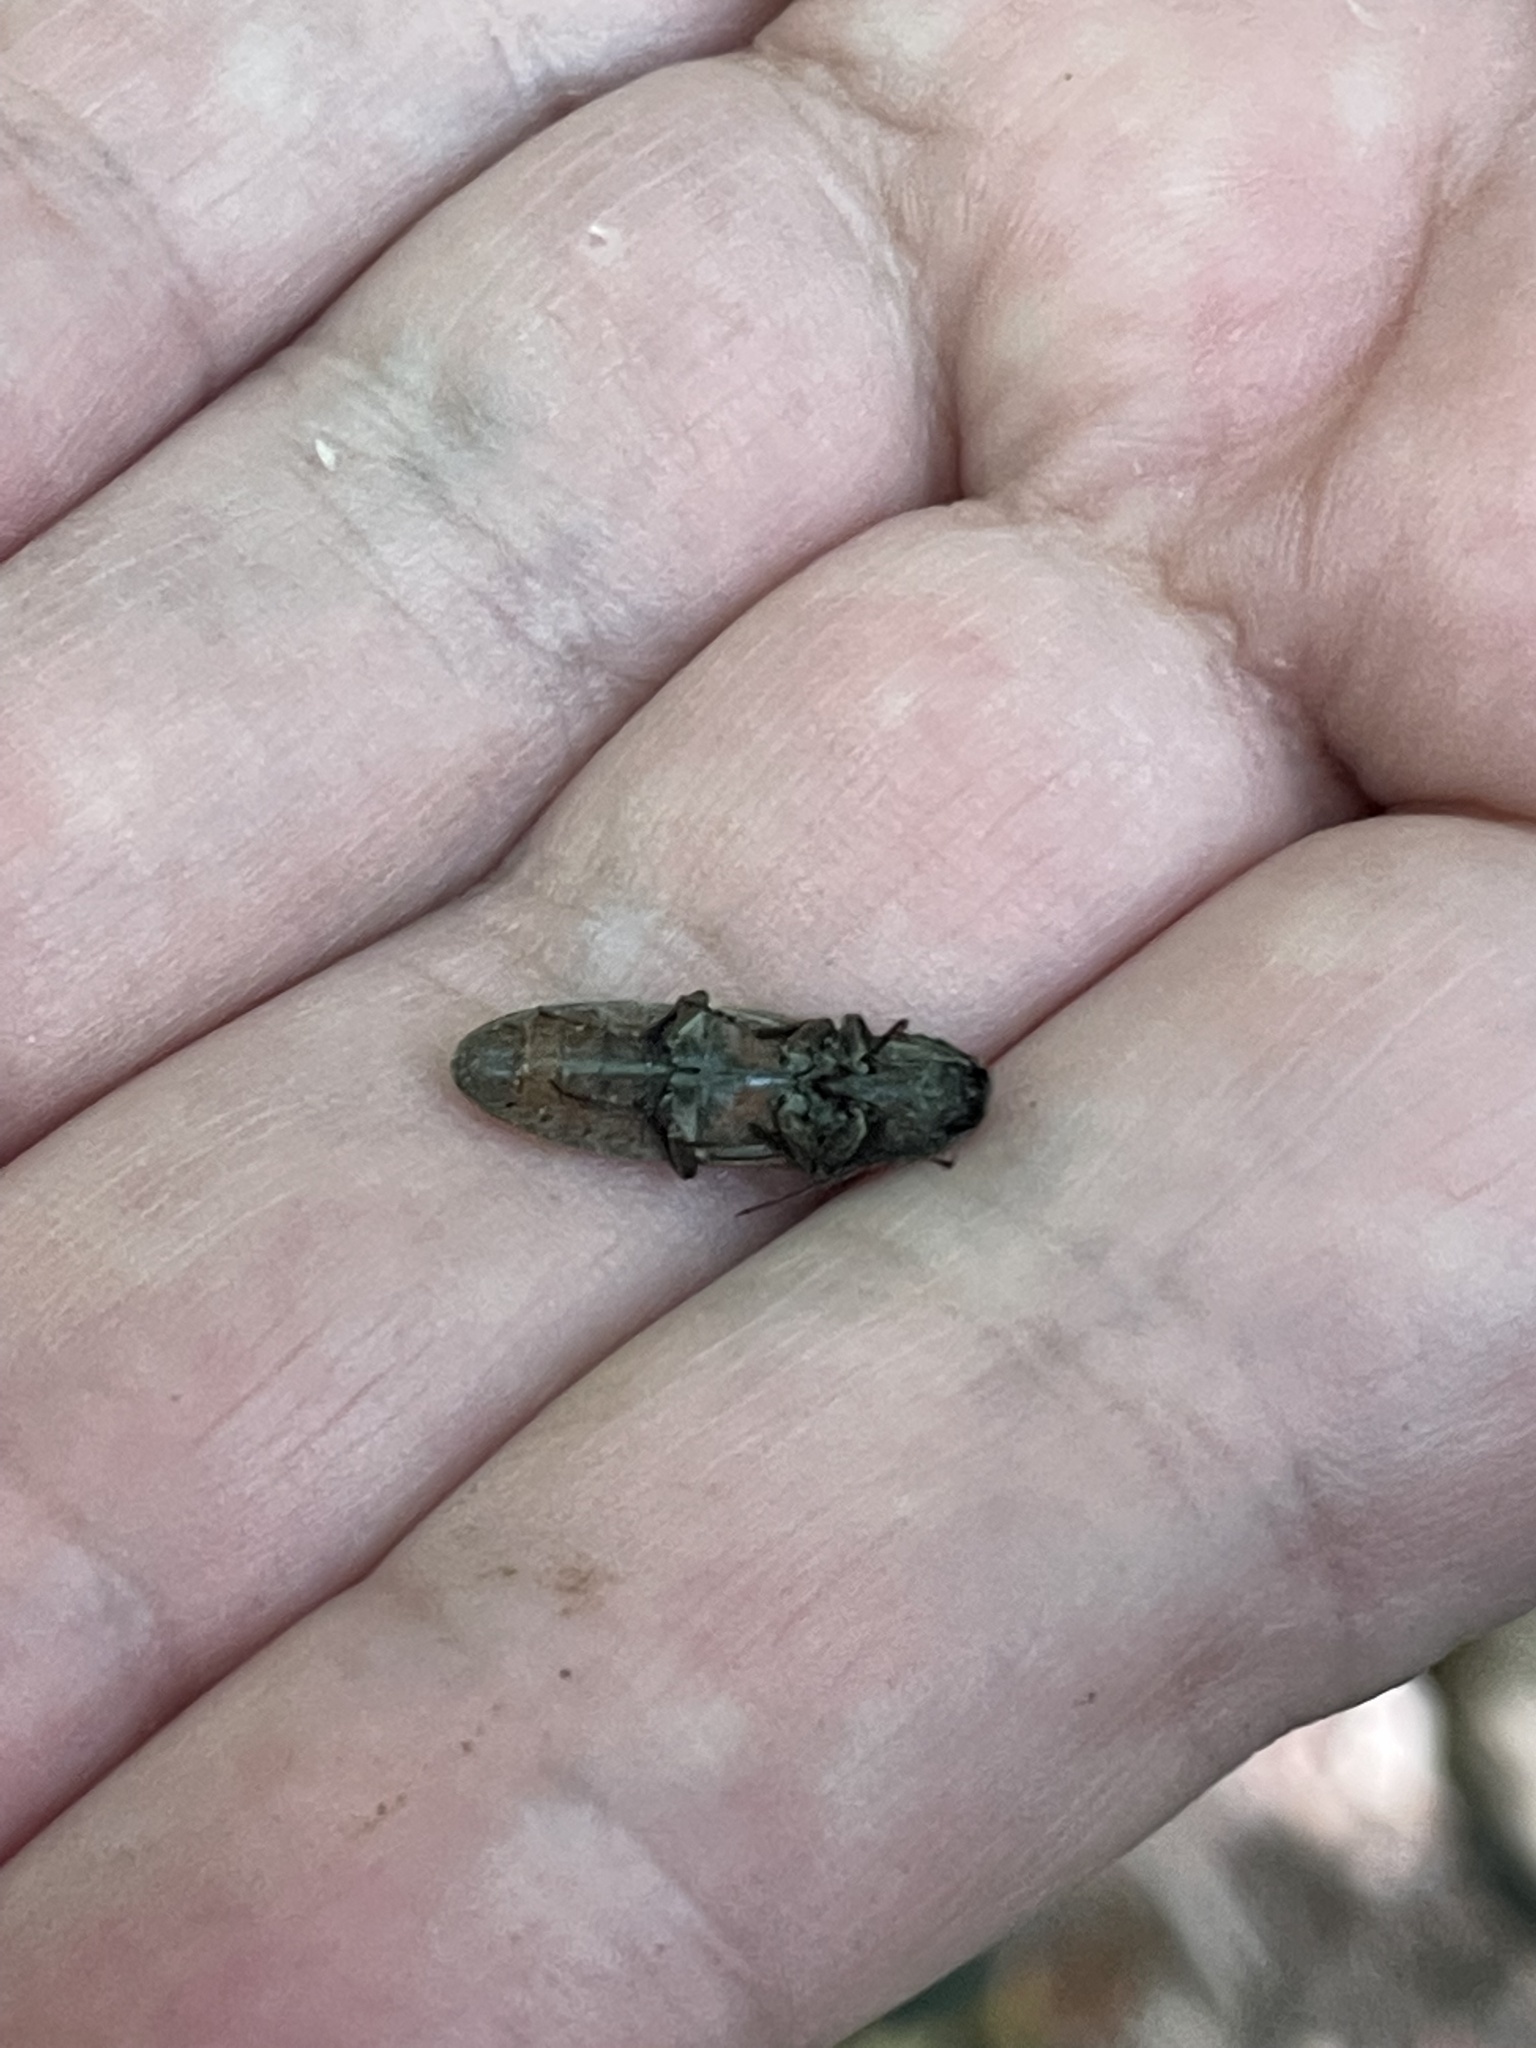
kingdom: Animalia
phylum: Arthropoda
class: Insecta
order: Coleoptera
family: Elateridae
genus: Tesolasomus
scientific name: Tesolasomus
